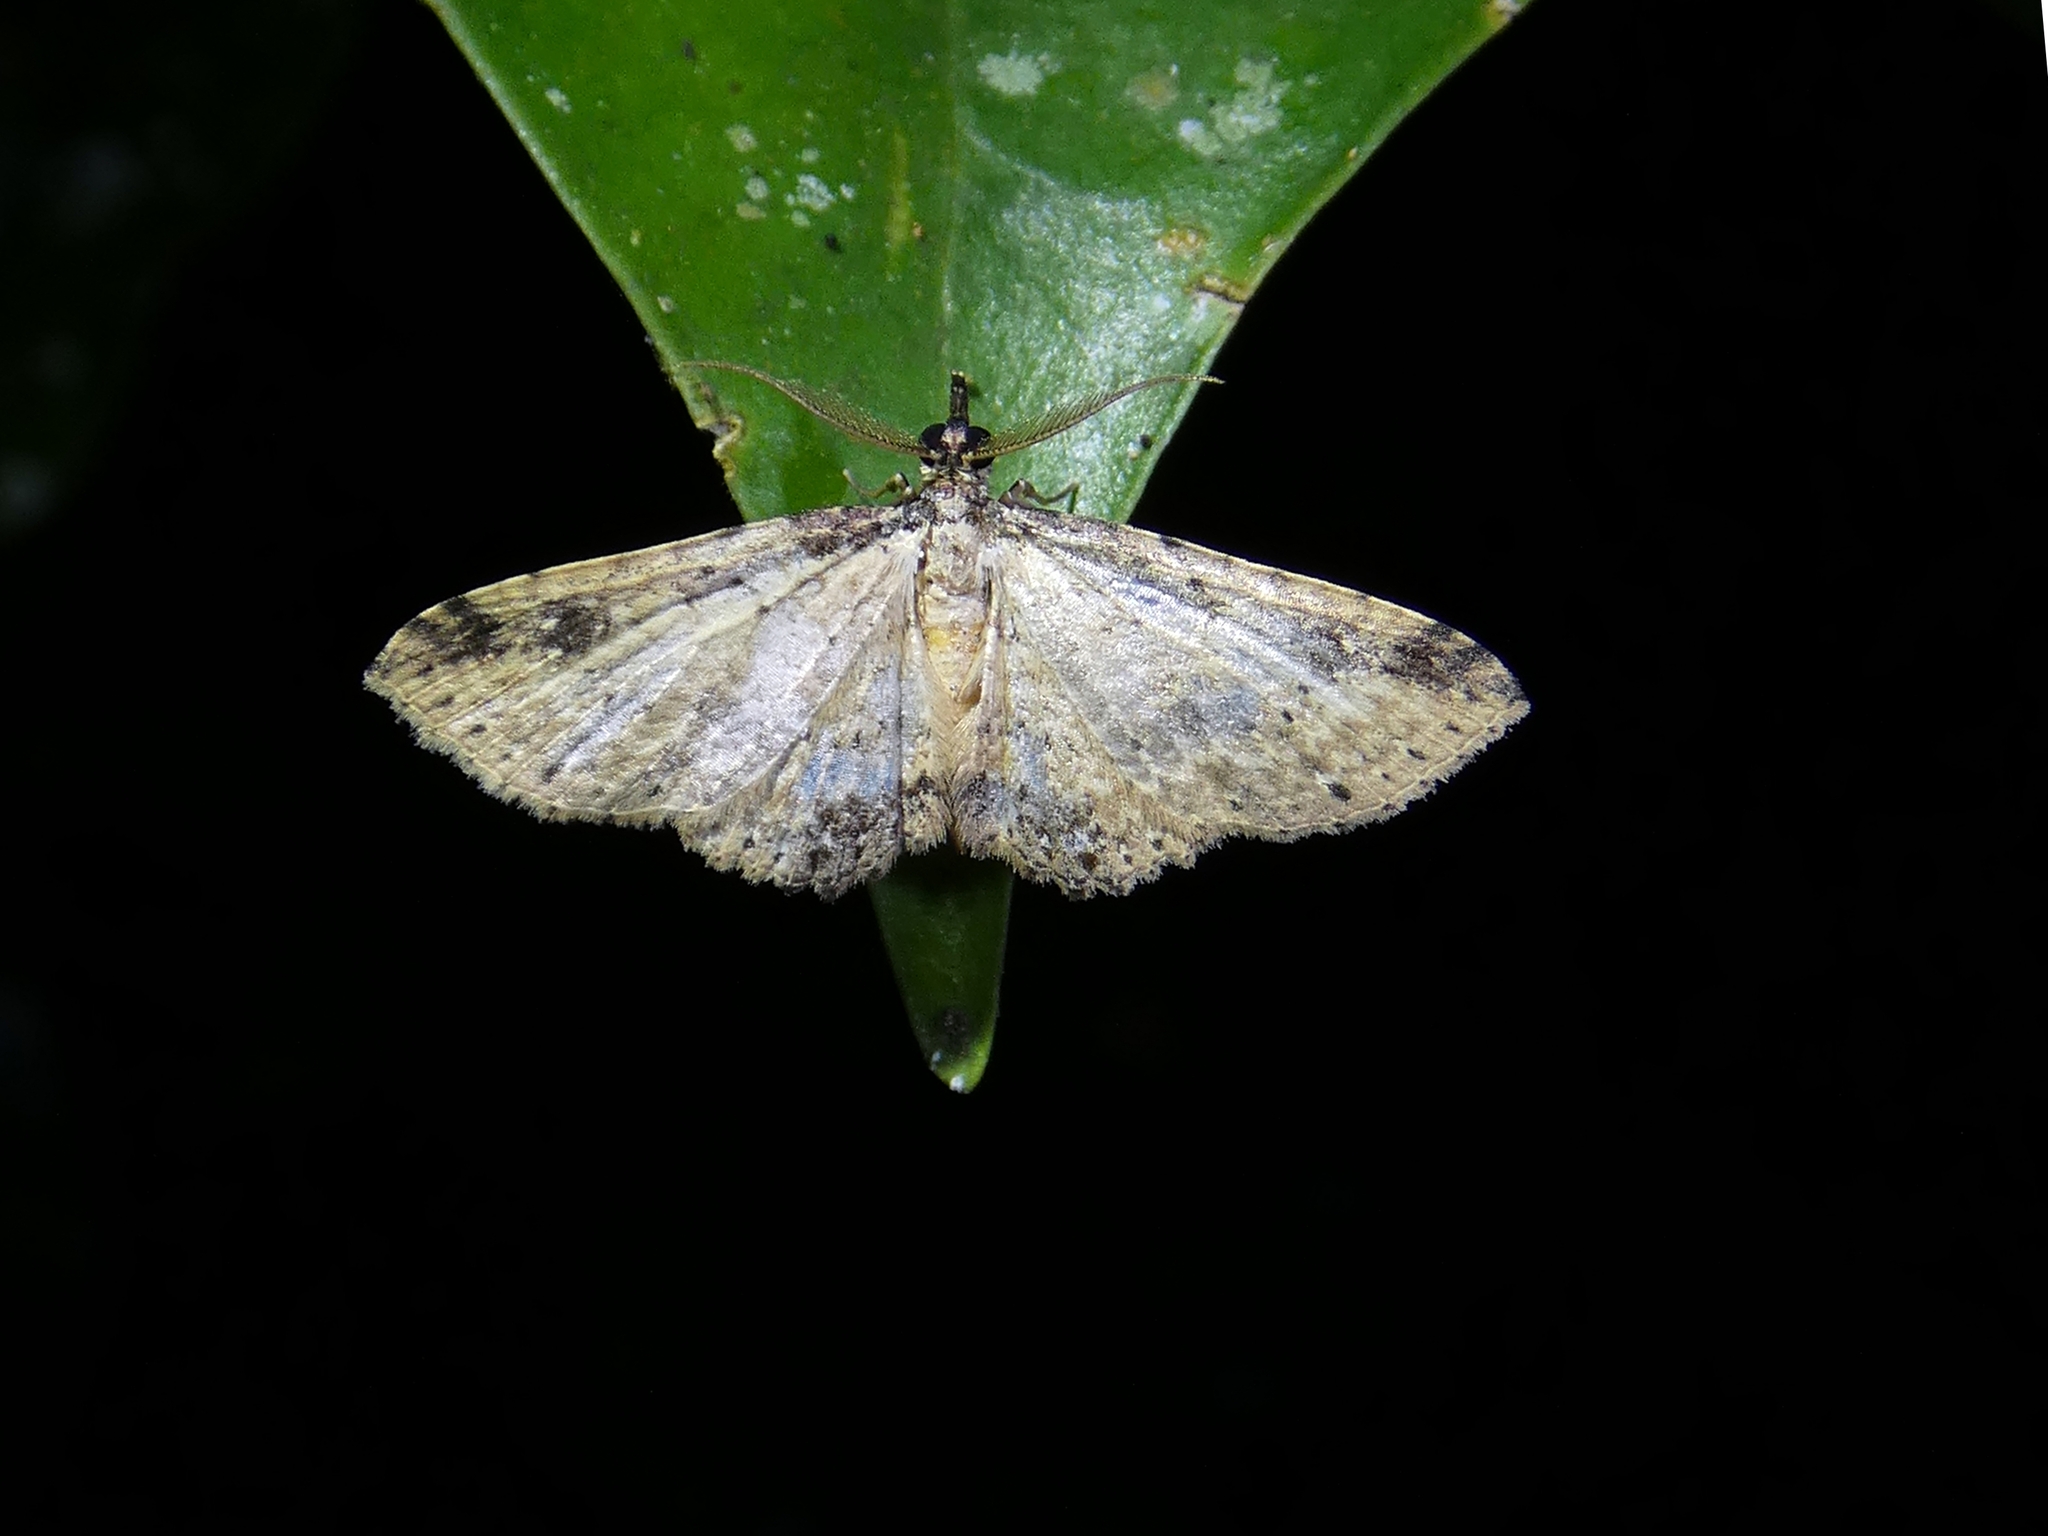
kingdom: Animalia
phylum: Arthropoda
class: Insecta
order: Lepidoptera
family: Geometridae
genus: Ziridava
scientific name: Ziridava rufinigra
